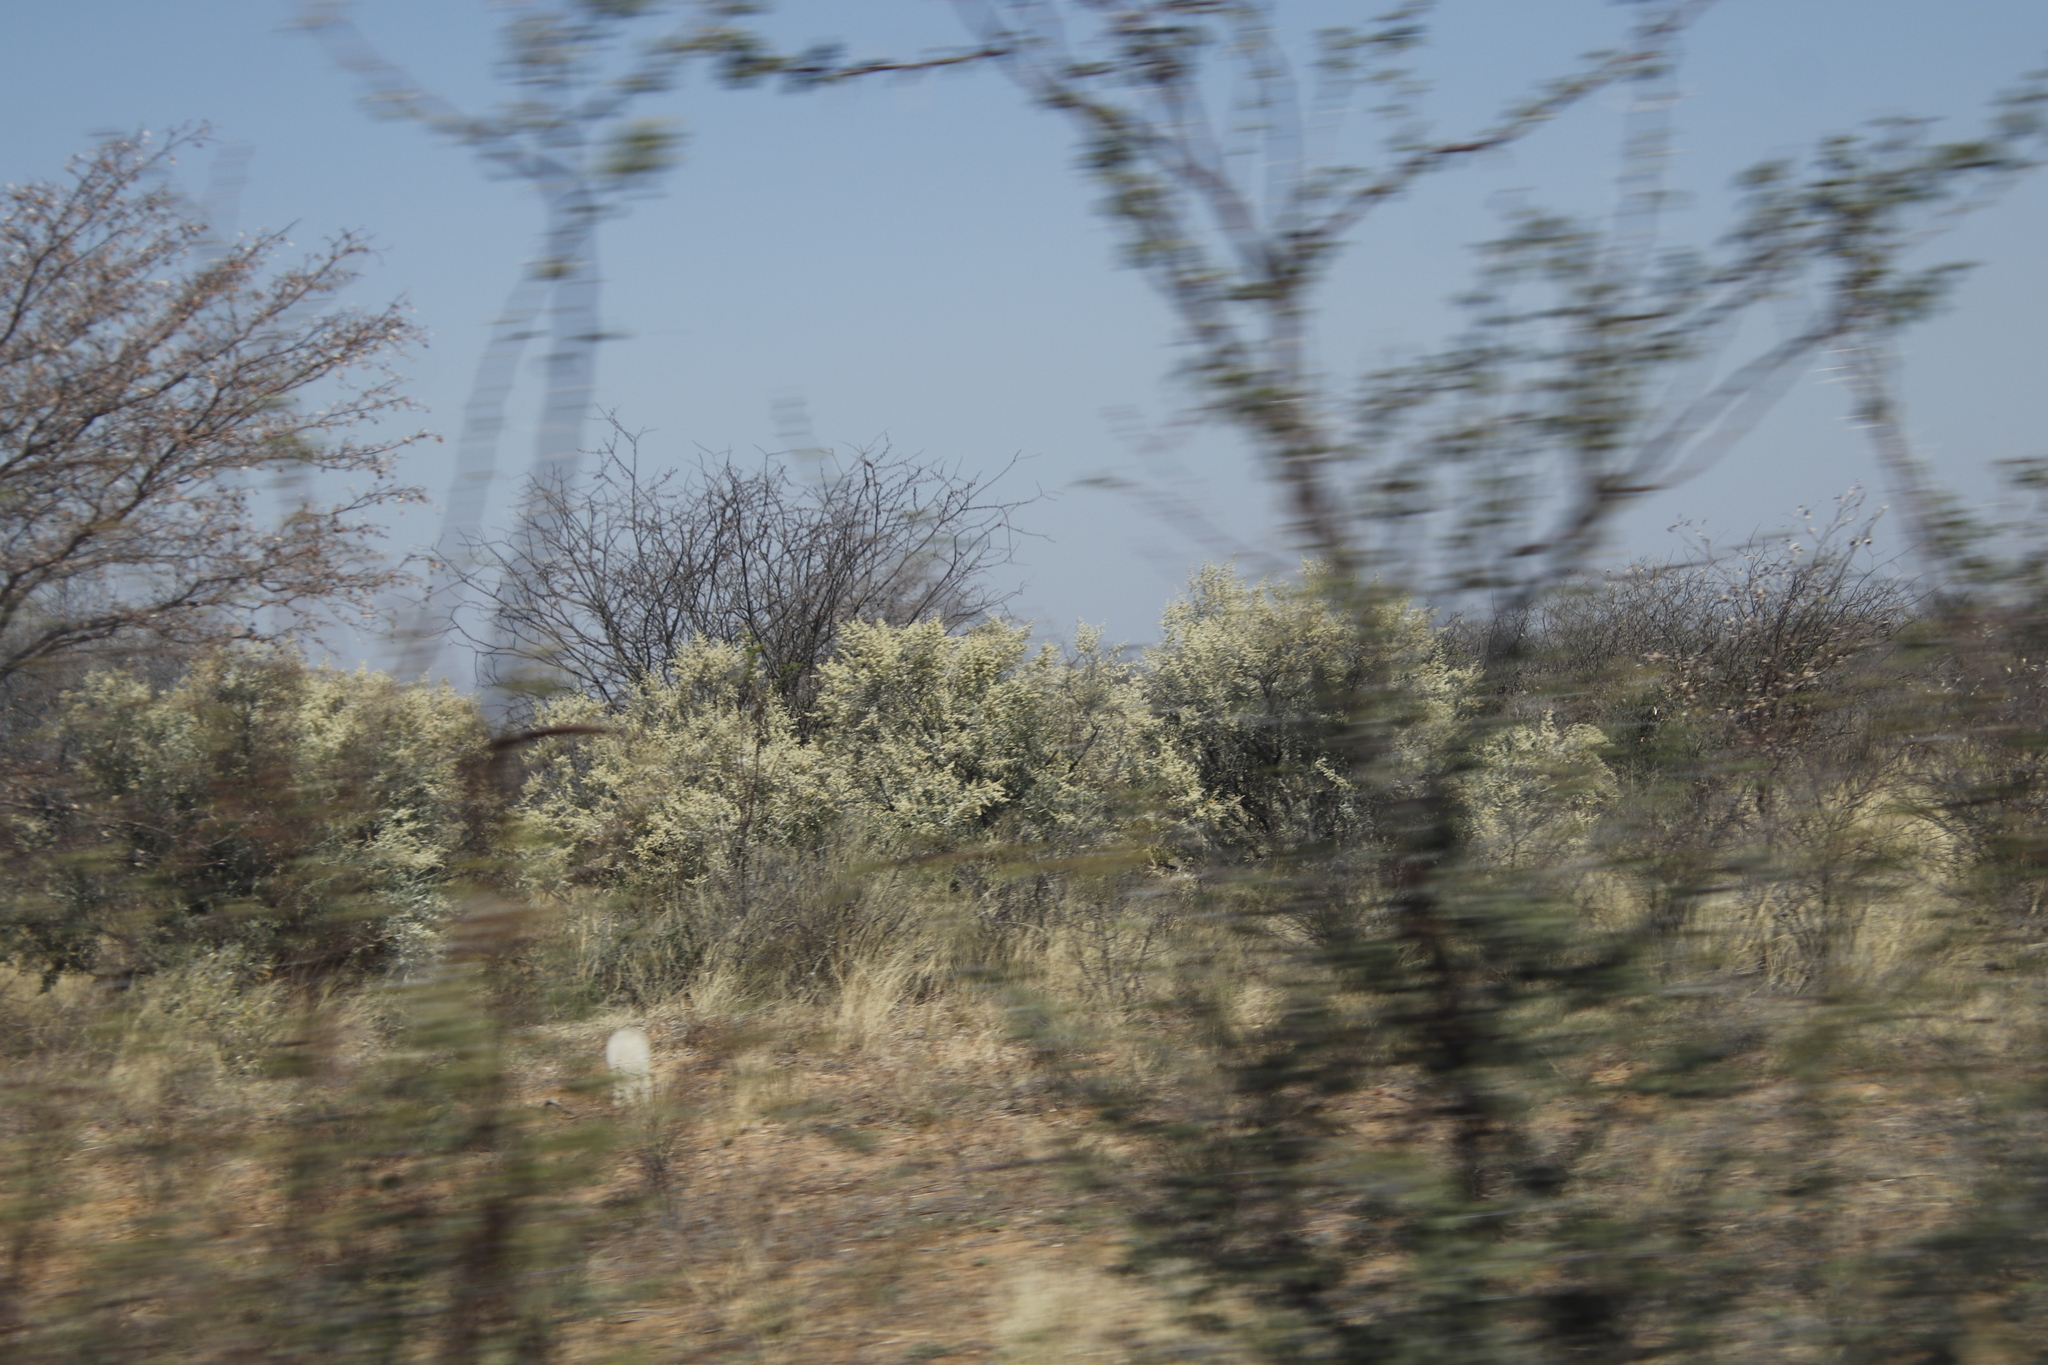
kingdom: Plantae
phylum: Tracheophyta
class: Magnoliopsida
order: Fabales
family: Fabaceae
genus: Senegalia
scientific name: Senegalia mellifera
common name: Hookthorn
